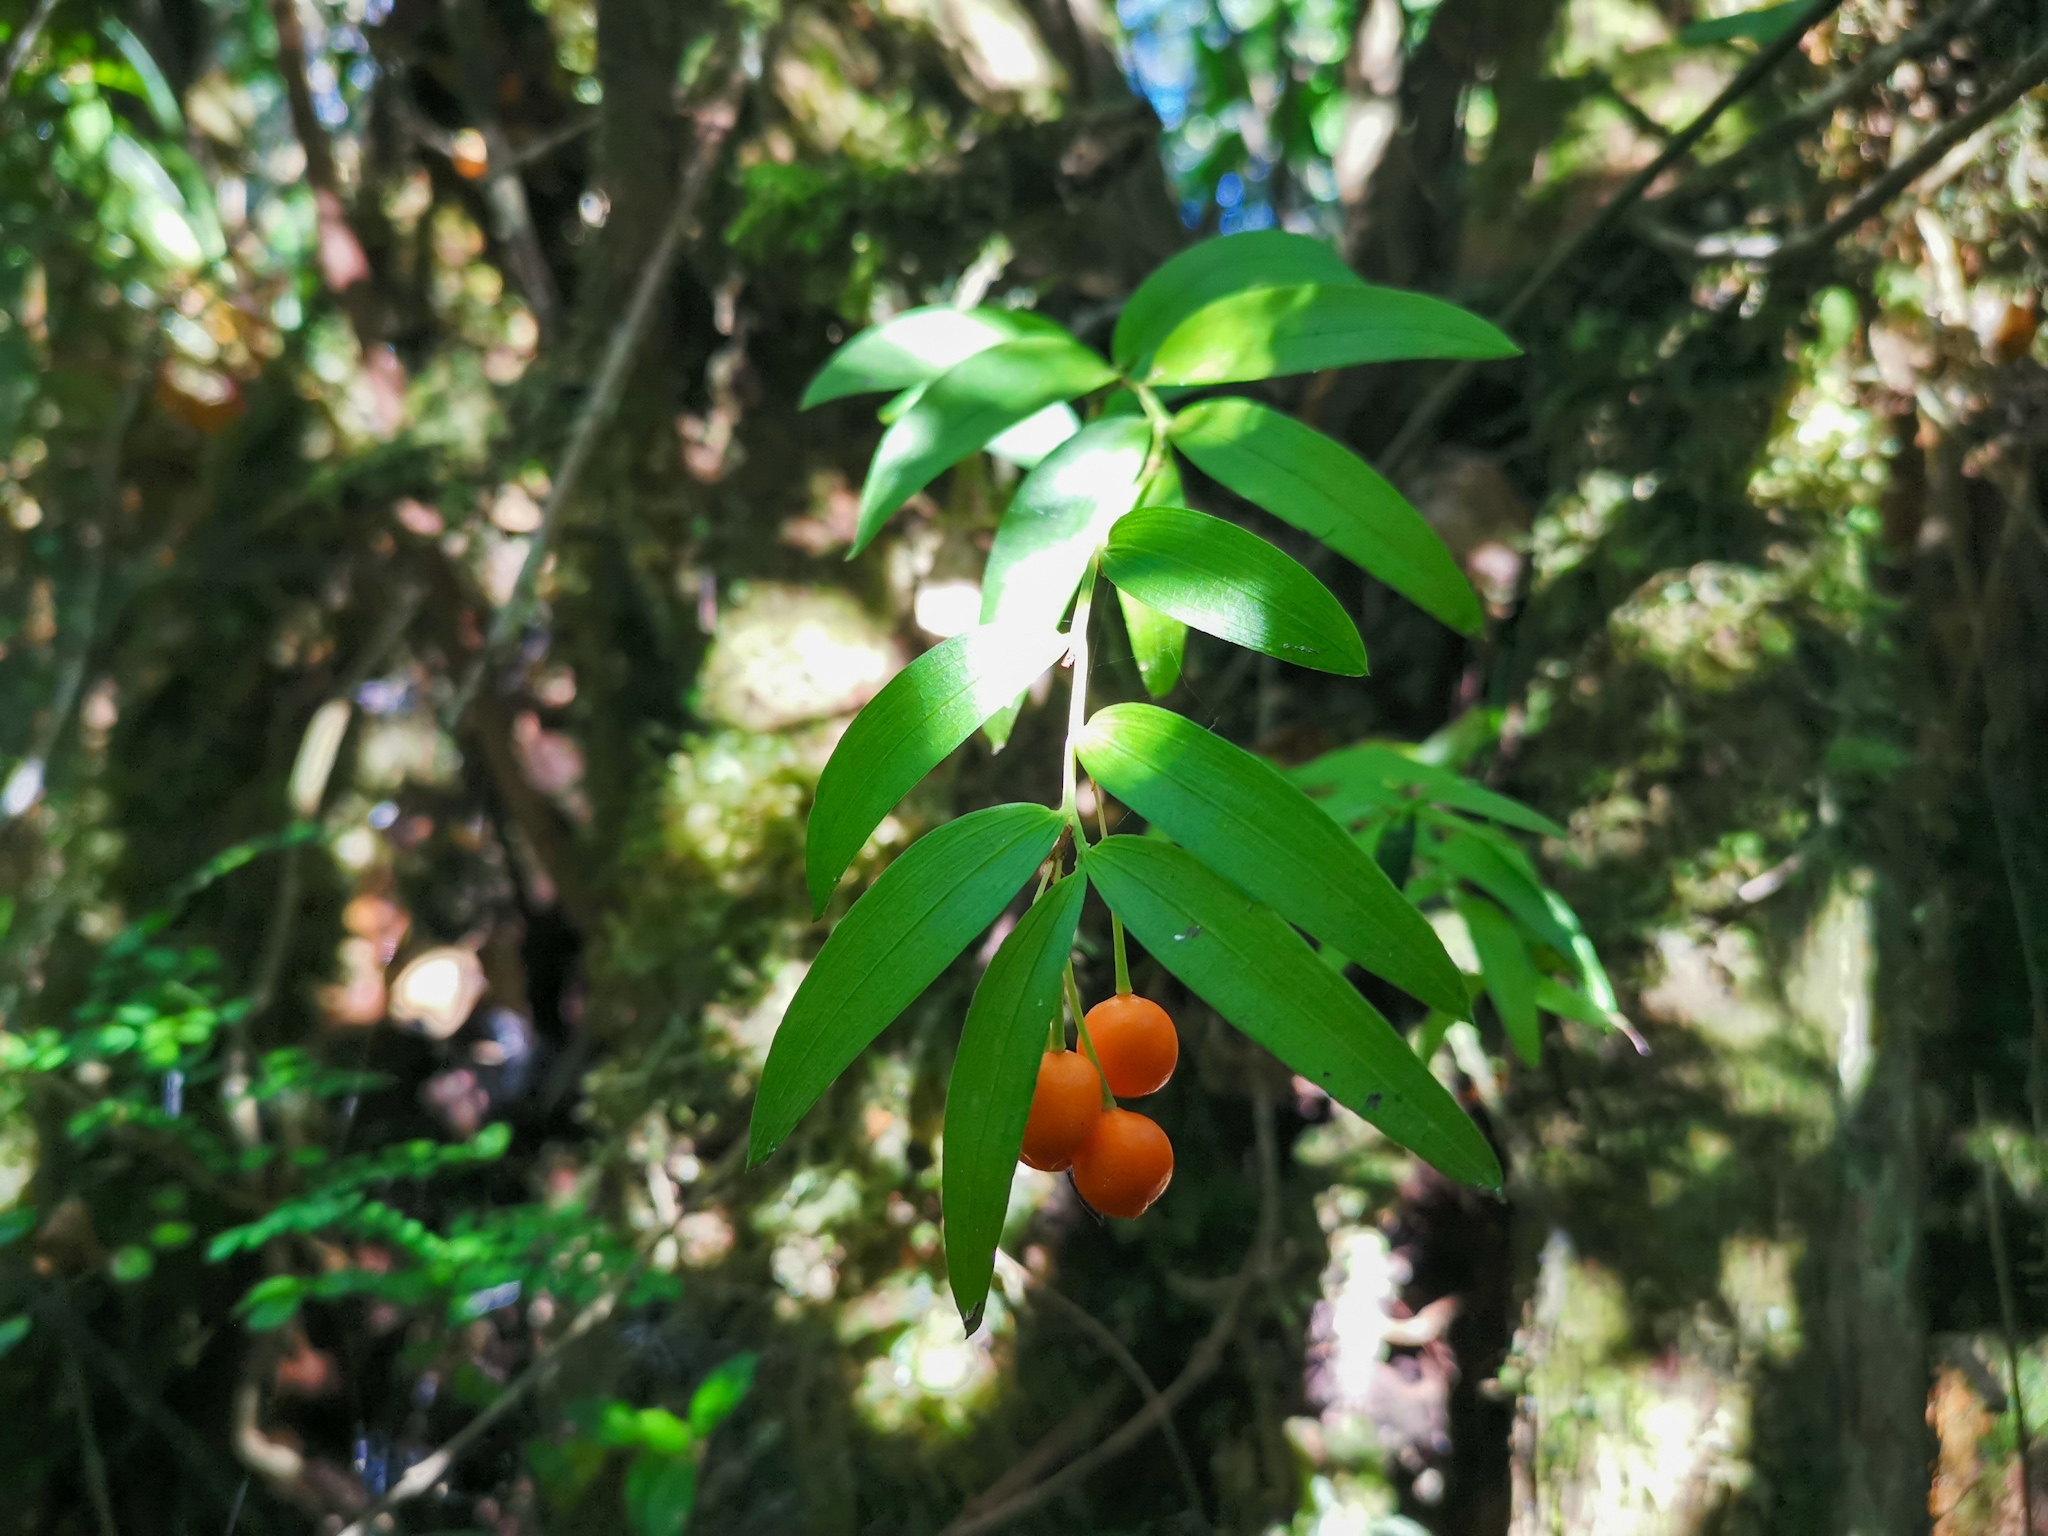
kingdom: Plantae
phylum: Tracheophyta
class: Liliopsida
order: Liliales
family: Alstroemeriaceae
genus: Luzuriaga
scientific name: Luzuriaga radicans
